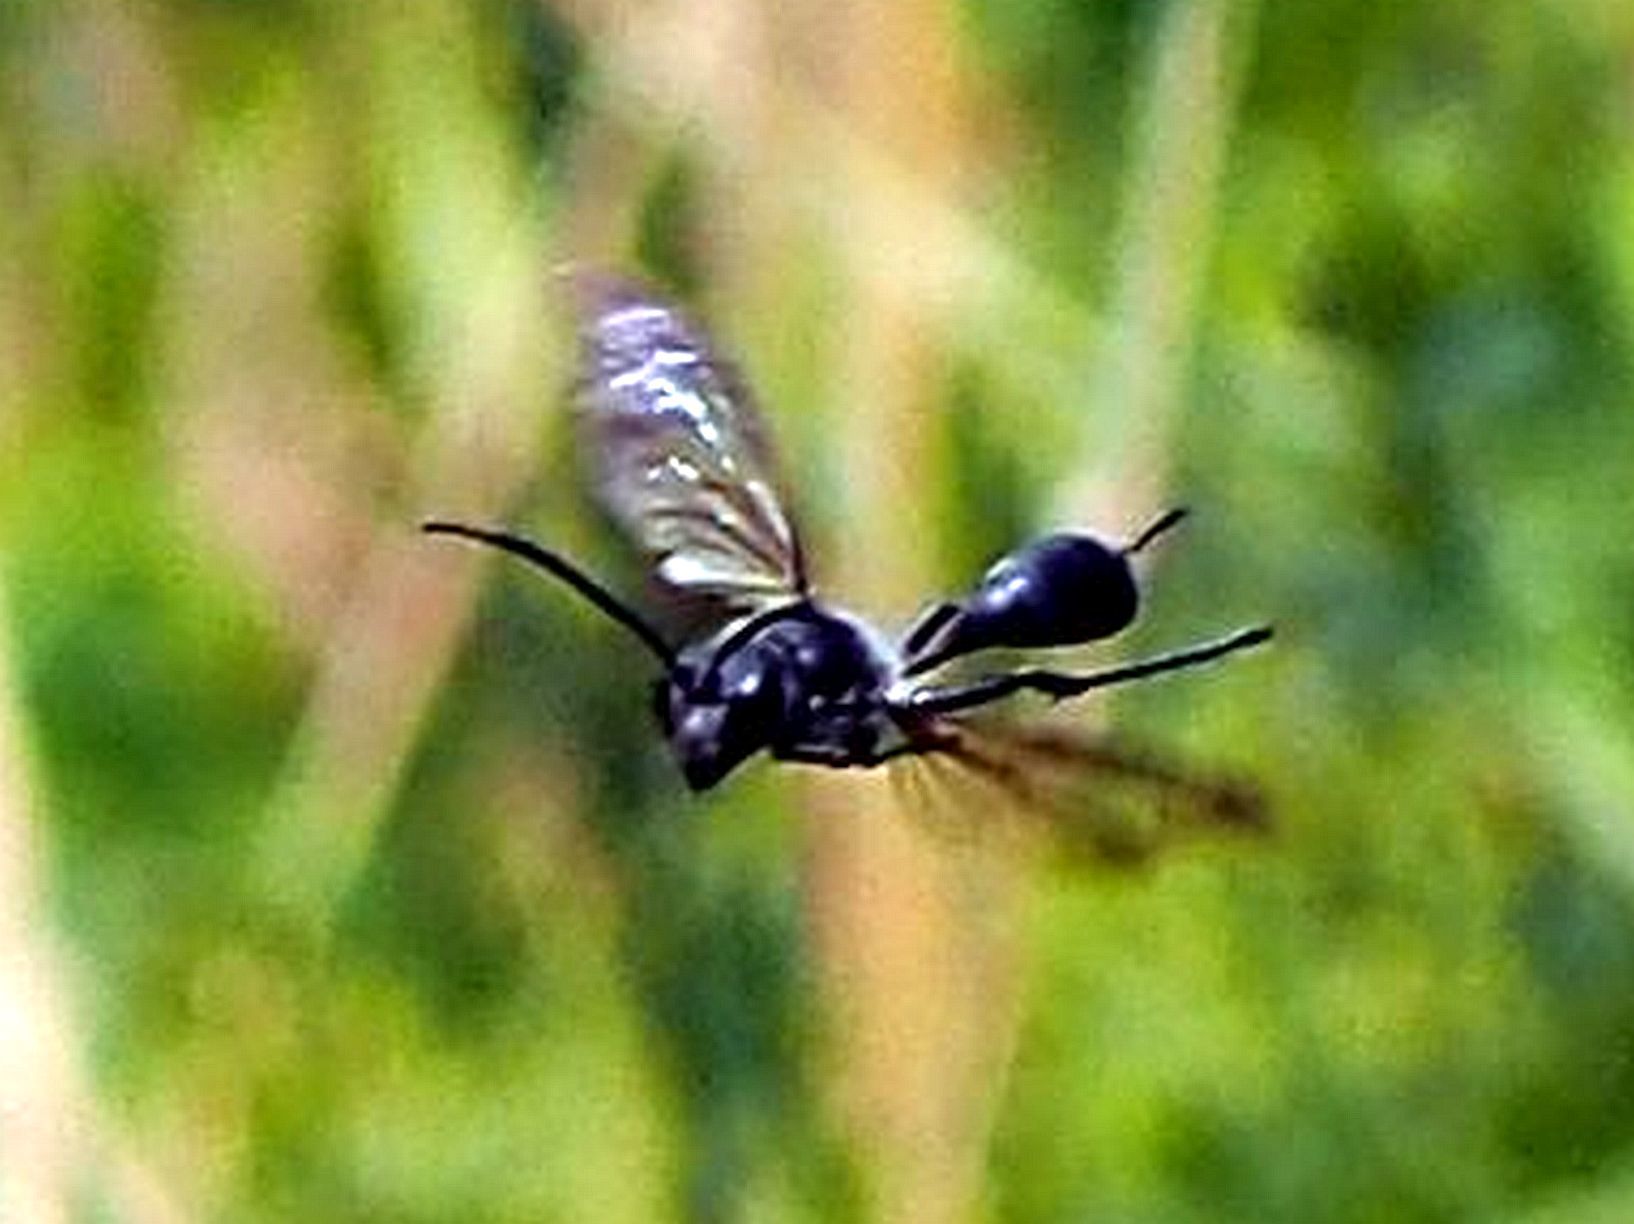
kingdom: Animalia
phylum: Arthropoda
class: Insecta
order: Hymenoptera
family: Sphecidae
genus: Isodontia
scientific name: Isodontia mexicana
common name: Mud dauber
